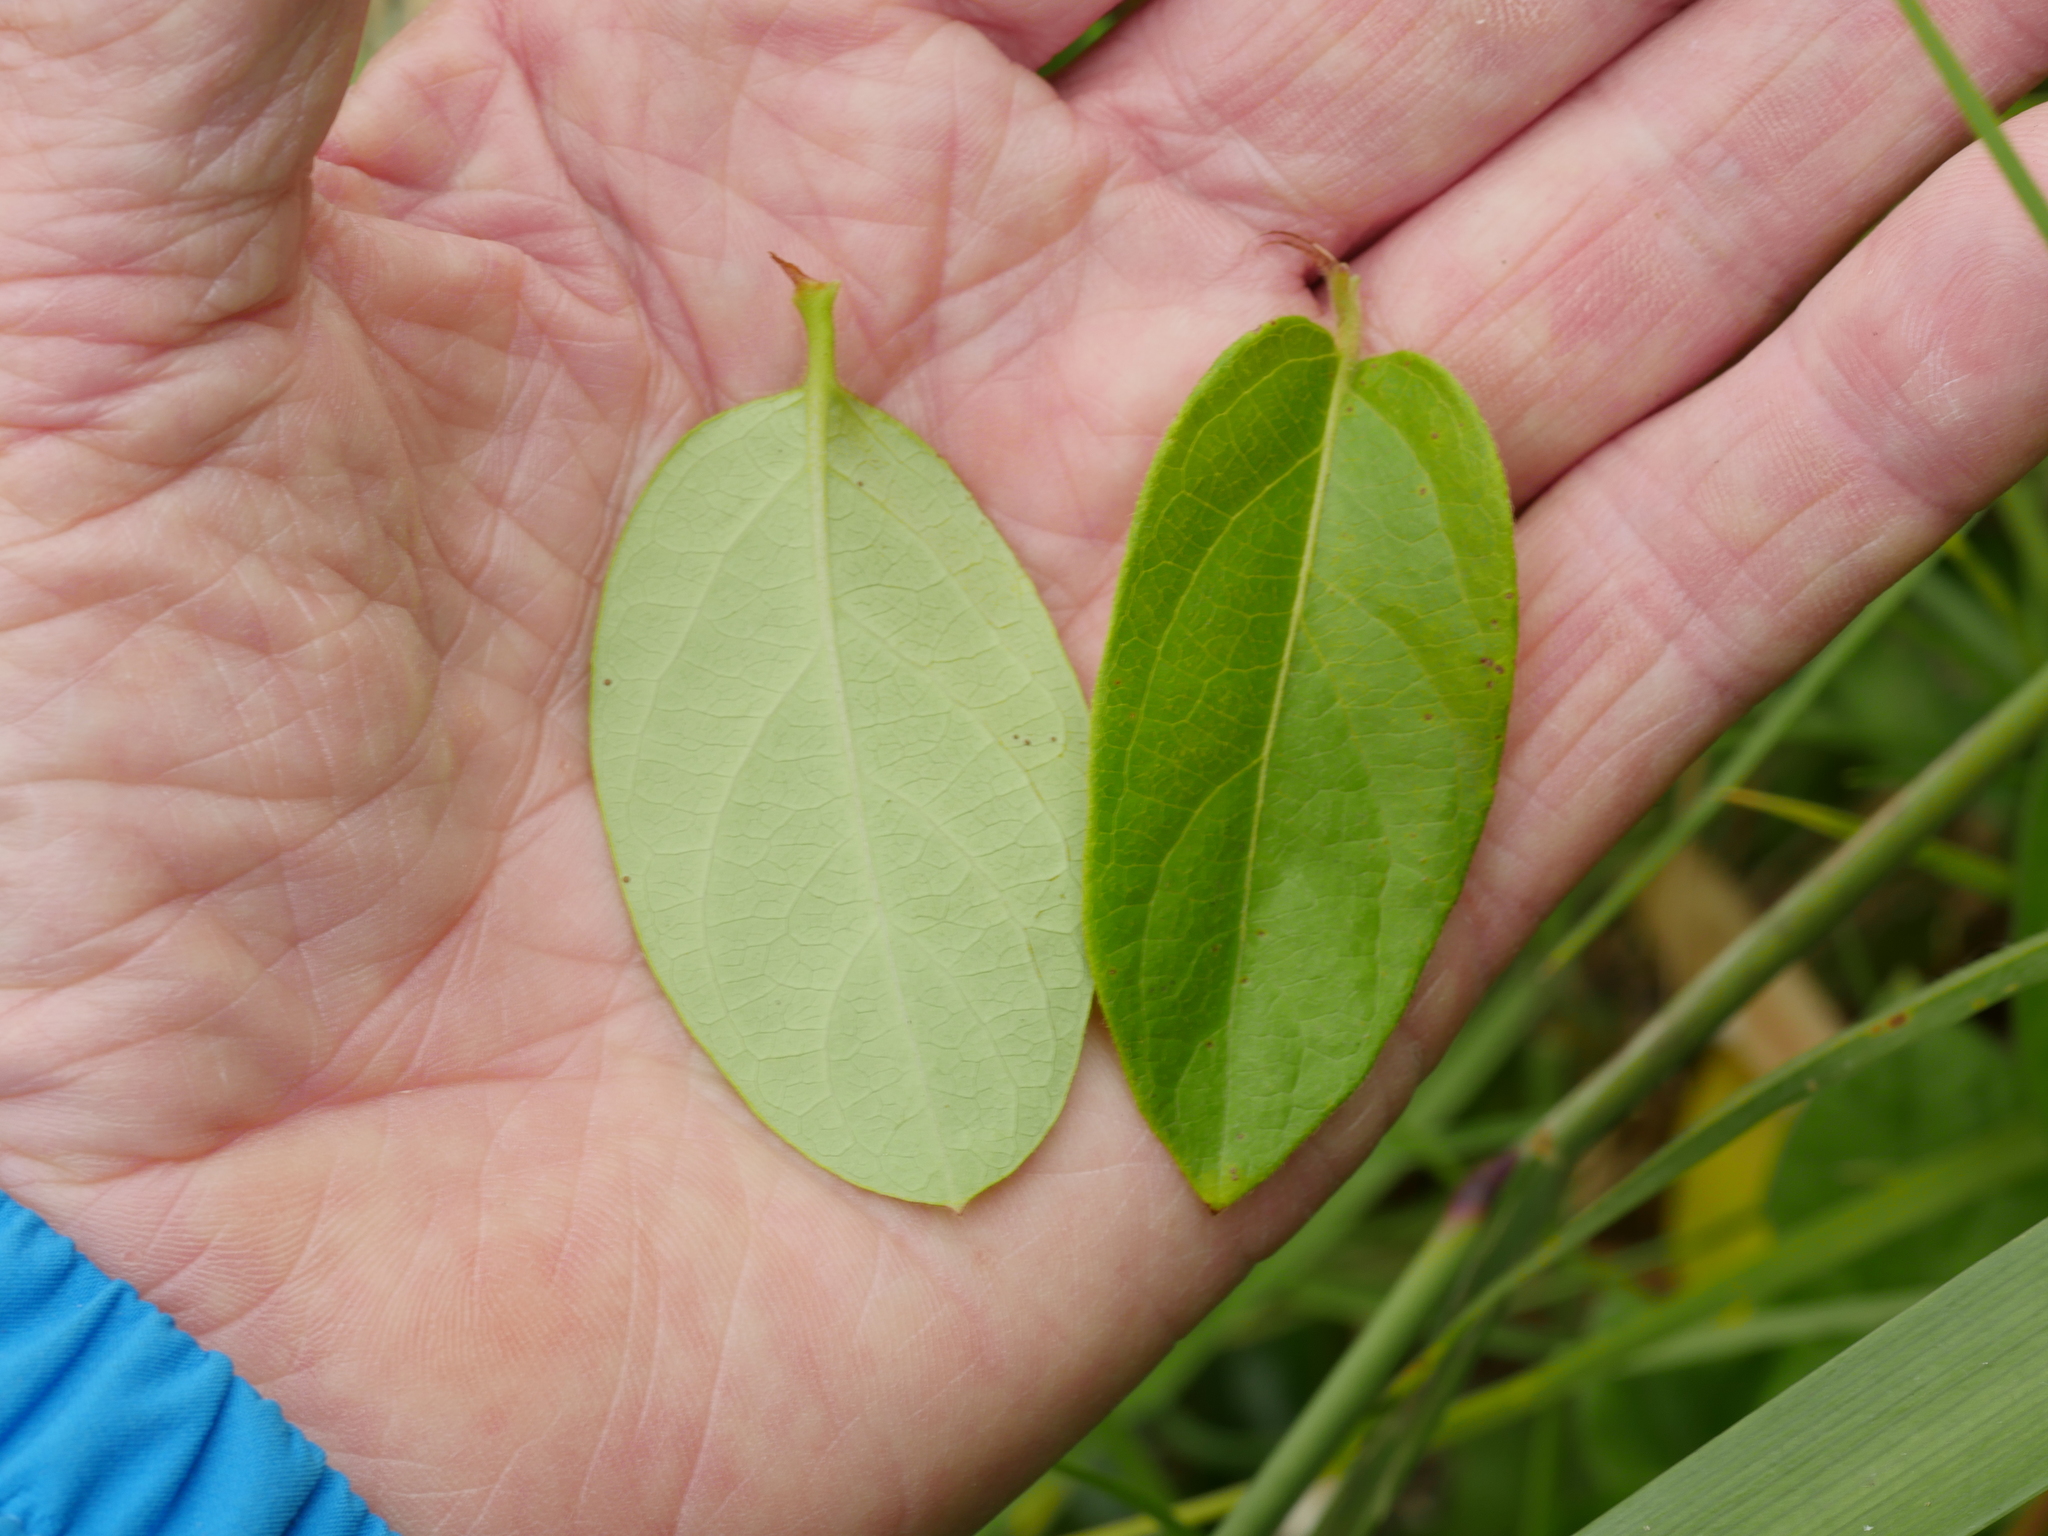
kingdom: Plantae
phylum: Tracheophyta
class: Magnoliopsida
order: Dipsacales
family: Caprifoliaceae
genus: Lonicera
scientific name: Lonicera japonica
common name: Japanese honeysuckle
